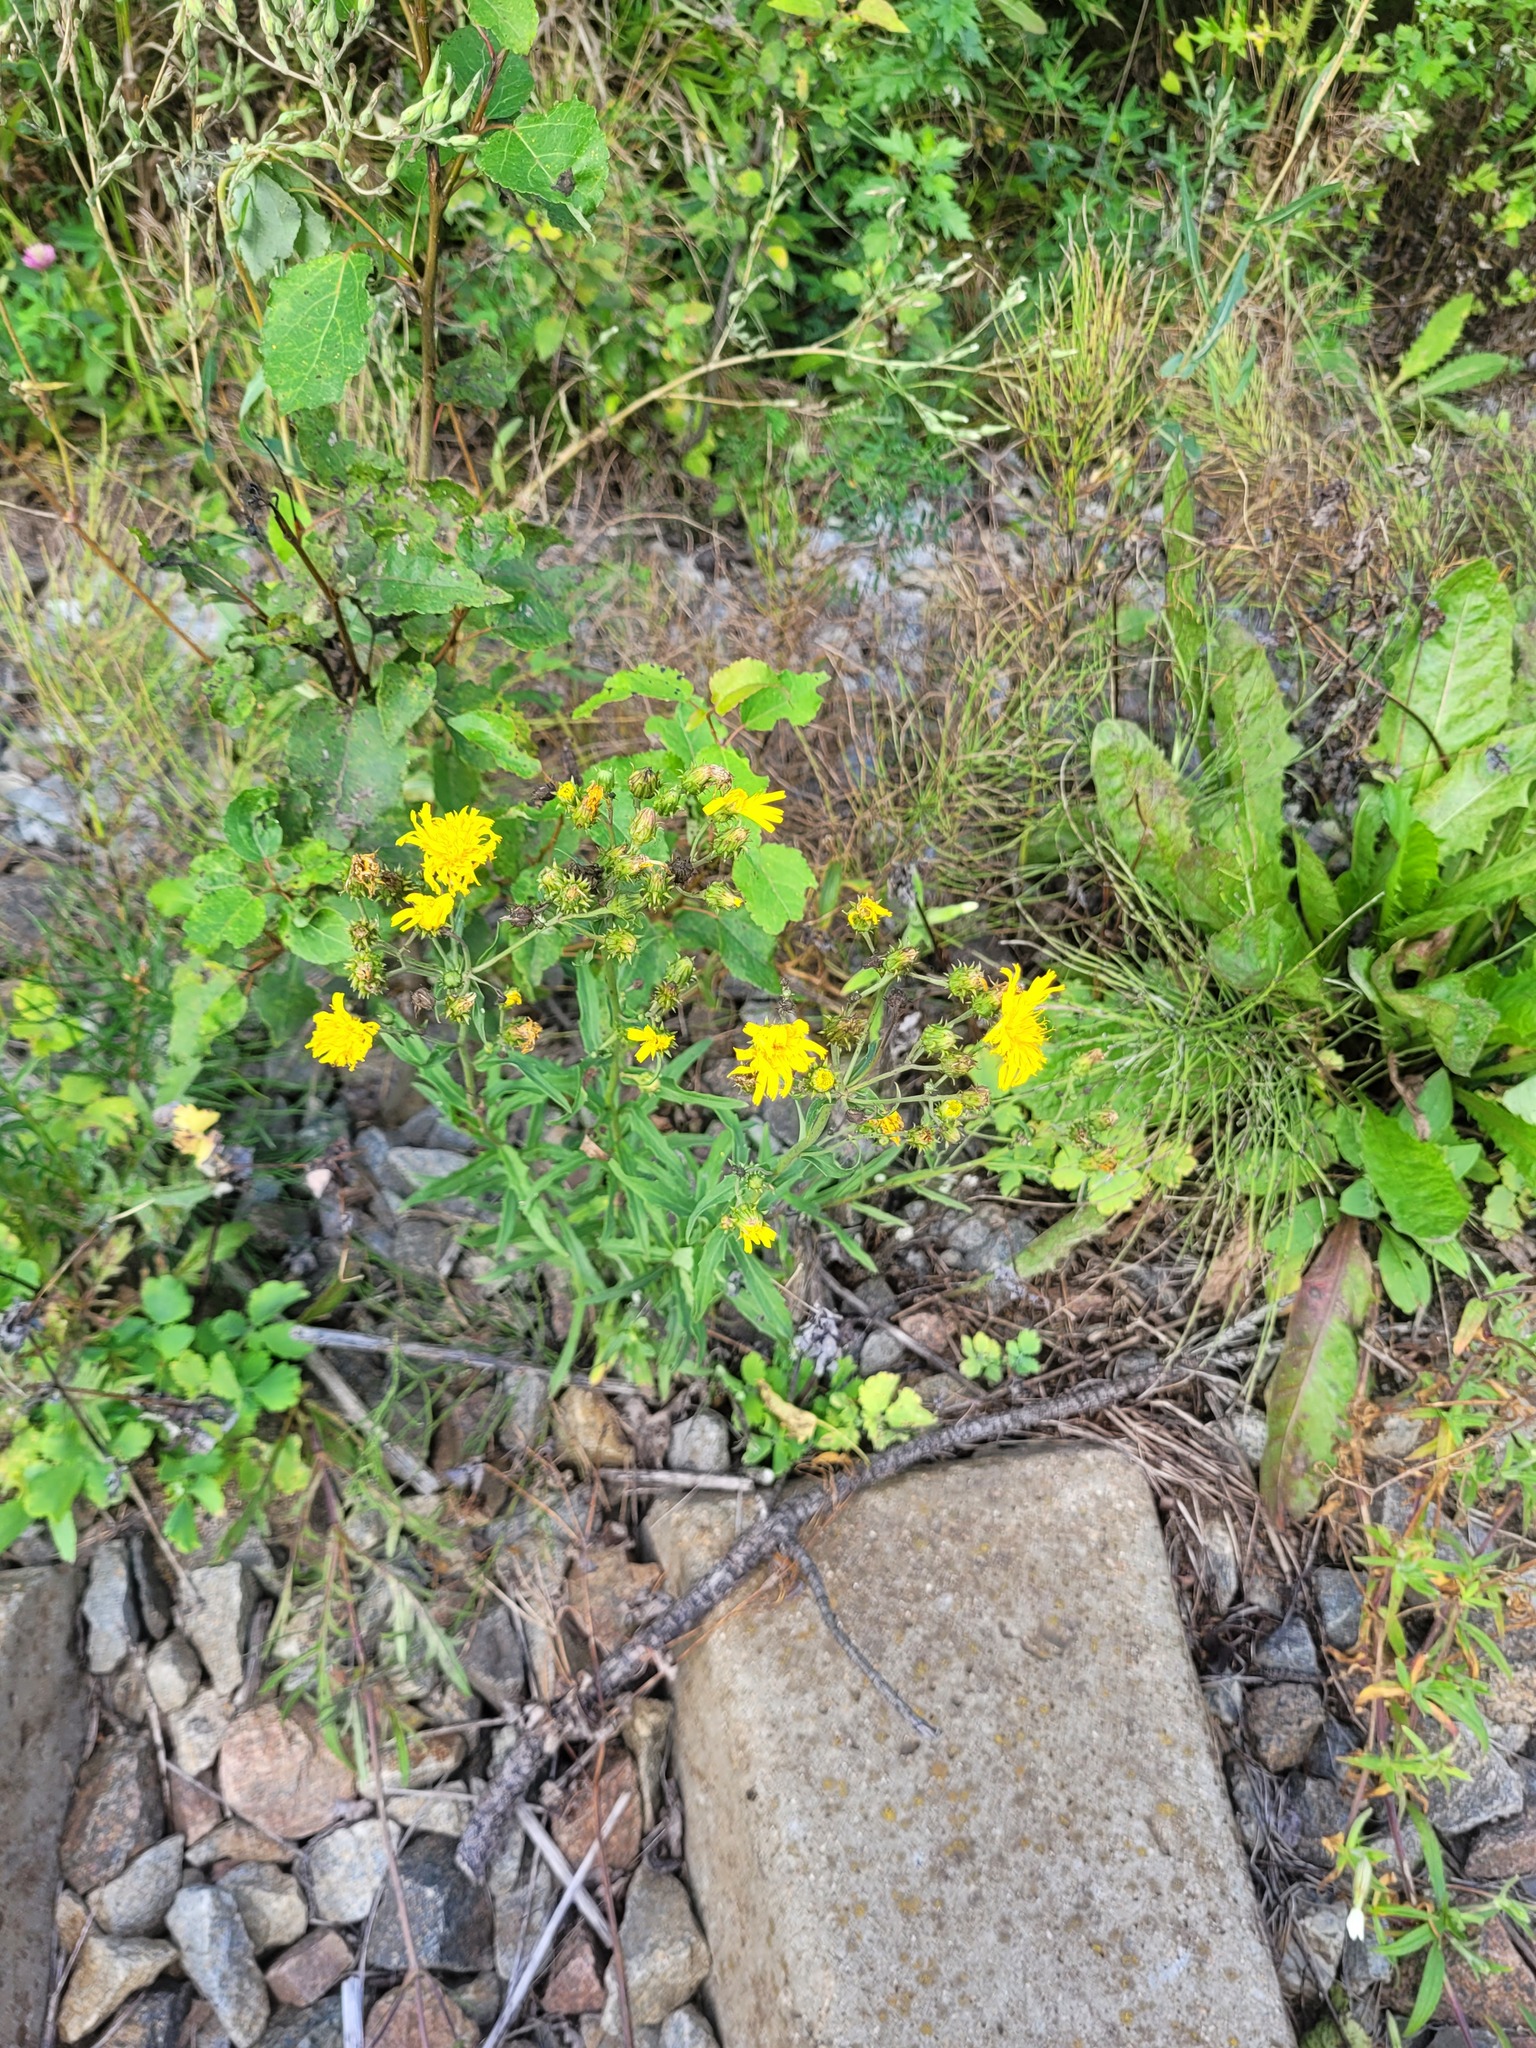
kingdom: Plantae
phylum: Tracheophyta
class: Magnoliopsida
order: Asterales
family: Asteraceae
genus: Hieracium
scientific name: Hieracium umbellatum
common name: Northern hawkweed
